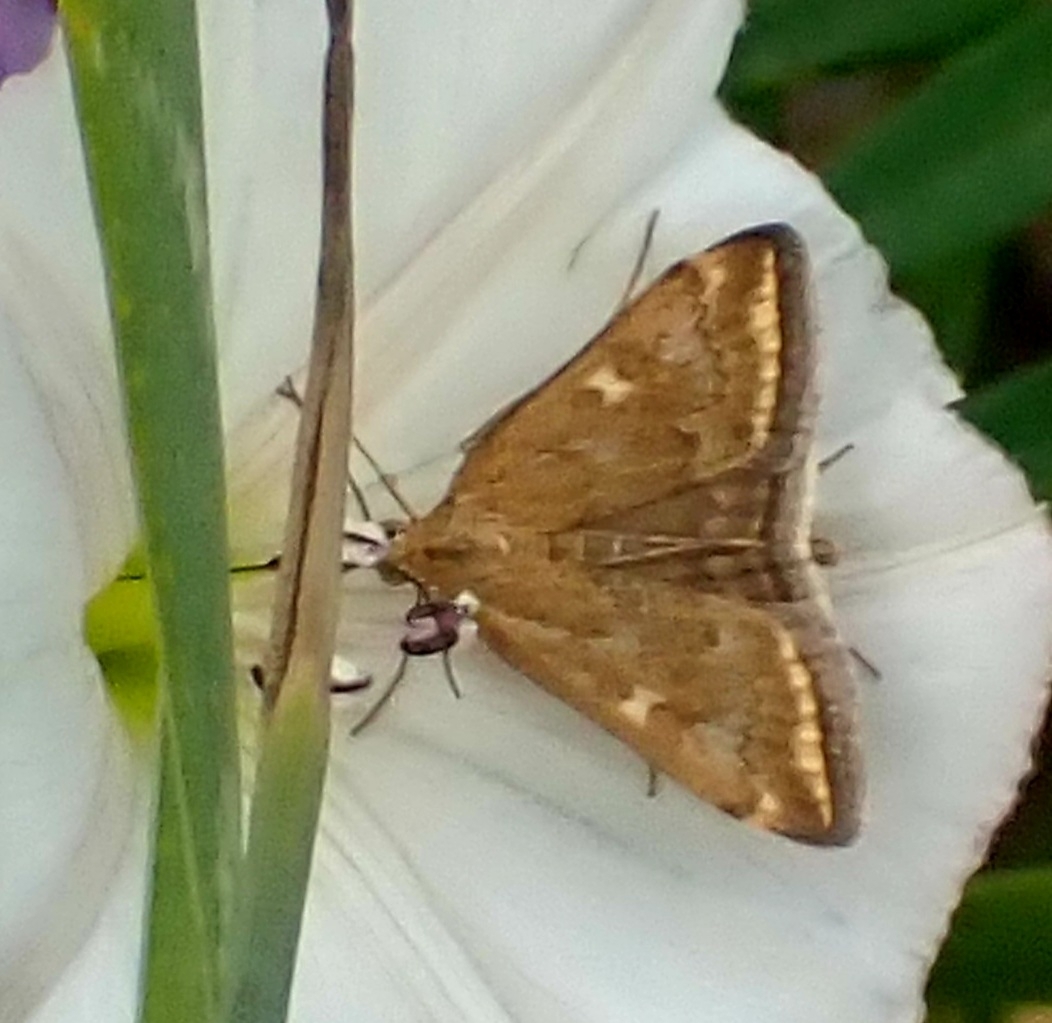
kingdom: Animalia
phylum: Arthropoda
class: Insecta
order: Lepidoptera
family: Crambidae
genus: Loxostege
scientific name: Loxostege sticticalis
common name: Crambid moth
